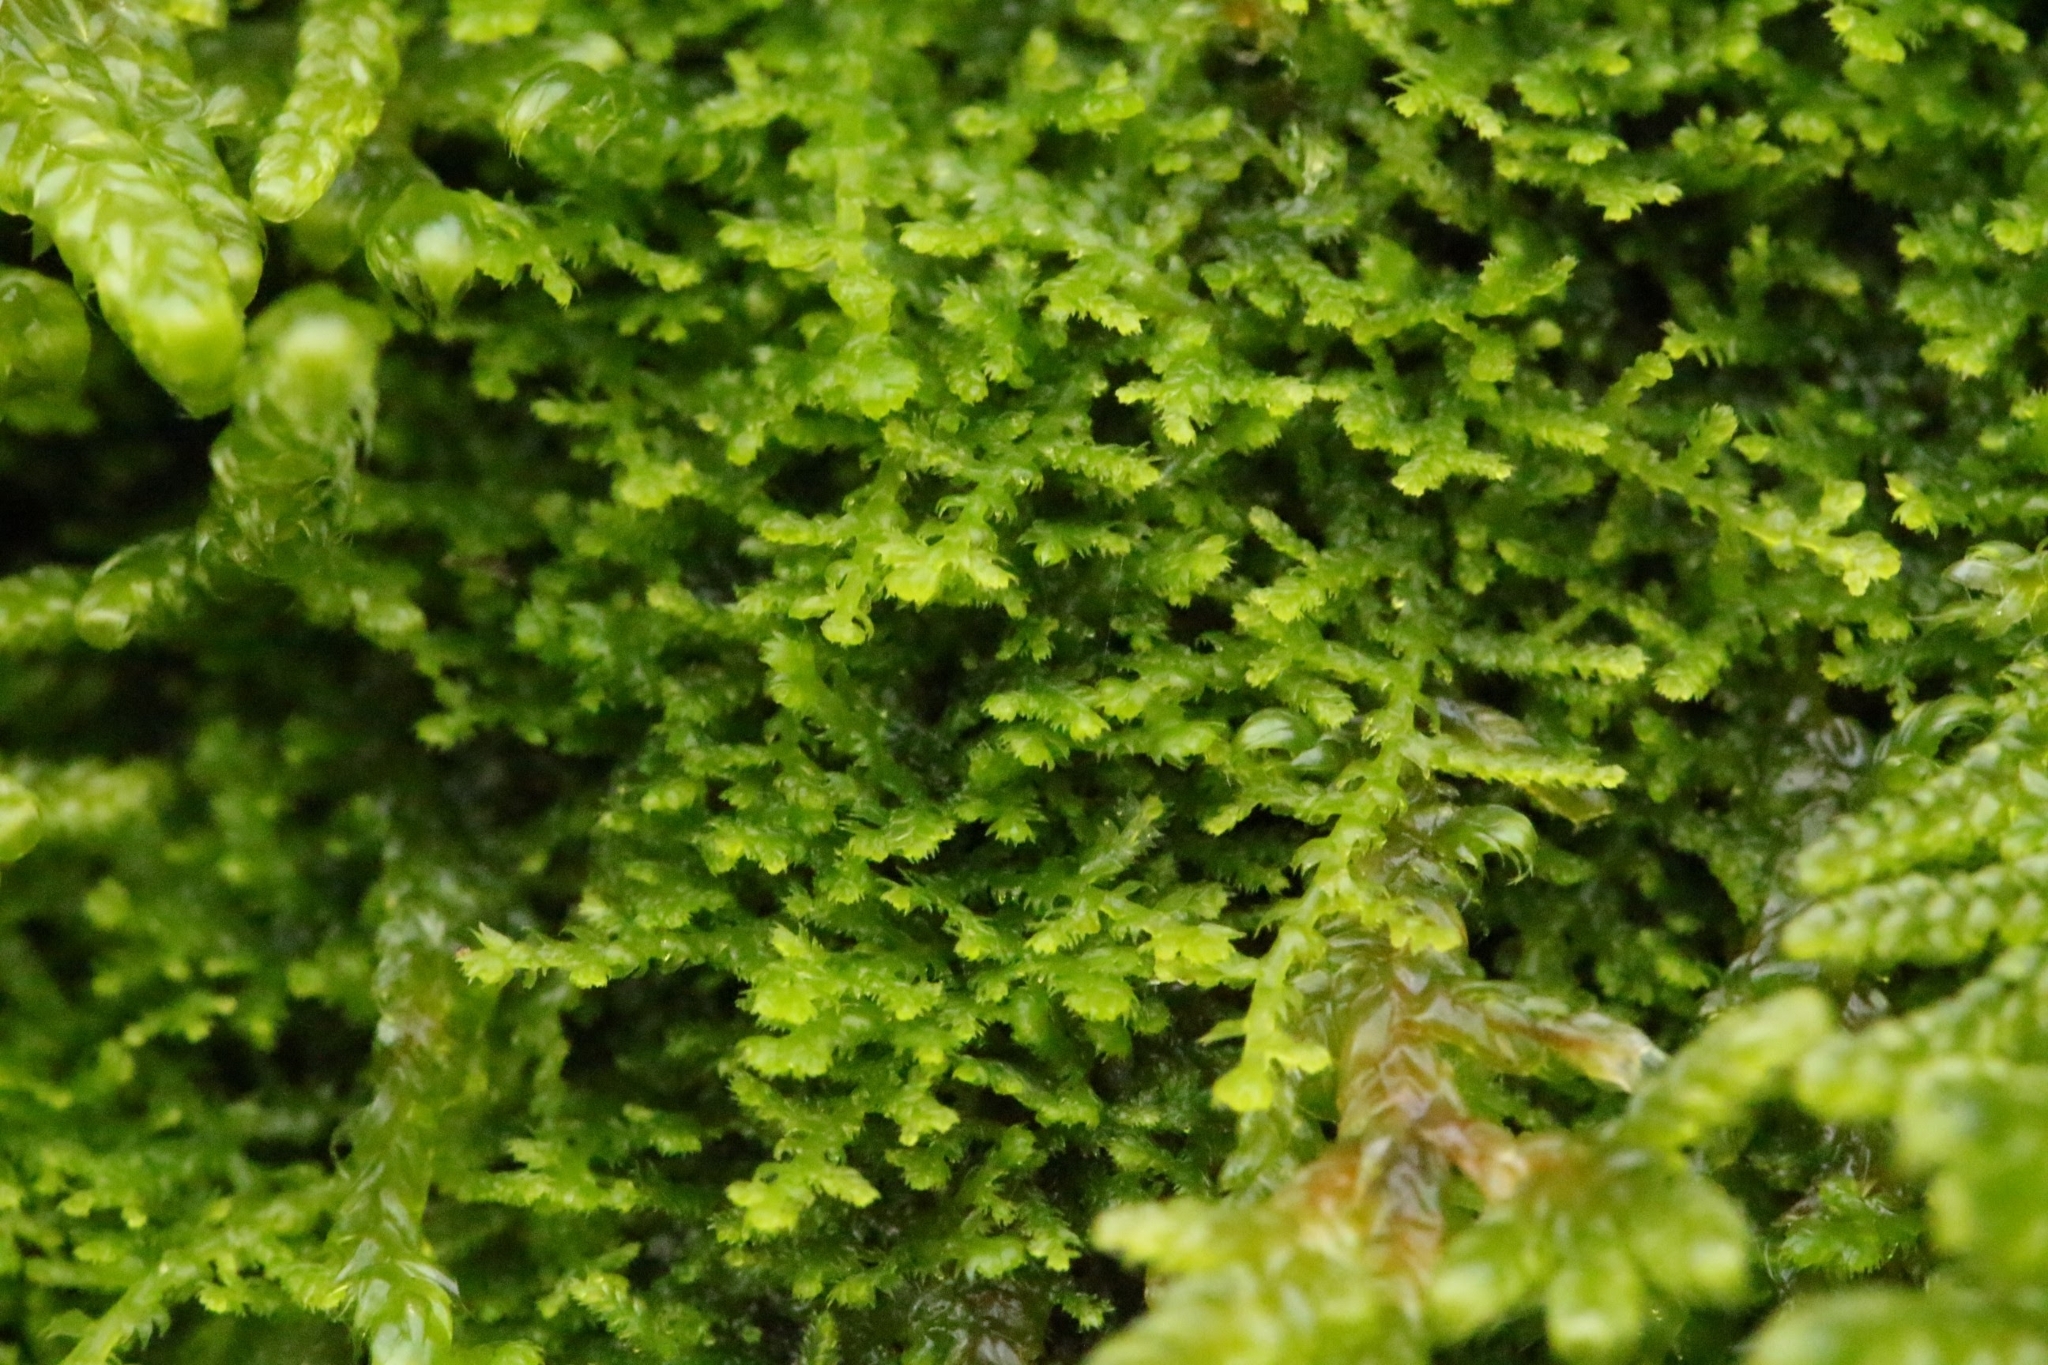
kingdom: Plantae
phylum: Marchantiophyta
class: Jungermanniopsida
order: Jungermanniales
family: Lepidoziaceae
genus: Lepidozia
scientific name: Lepidozia reptans
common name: Creeping fingerwort
